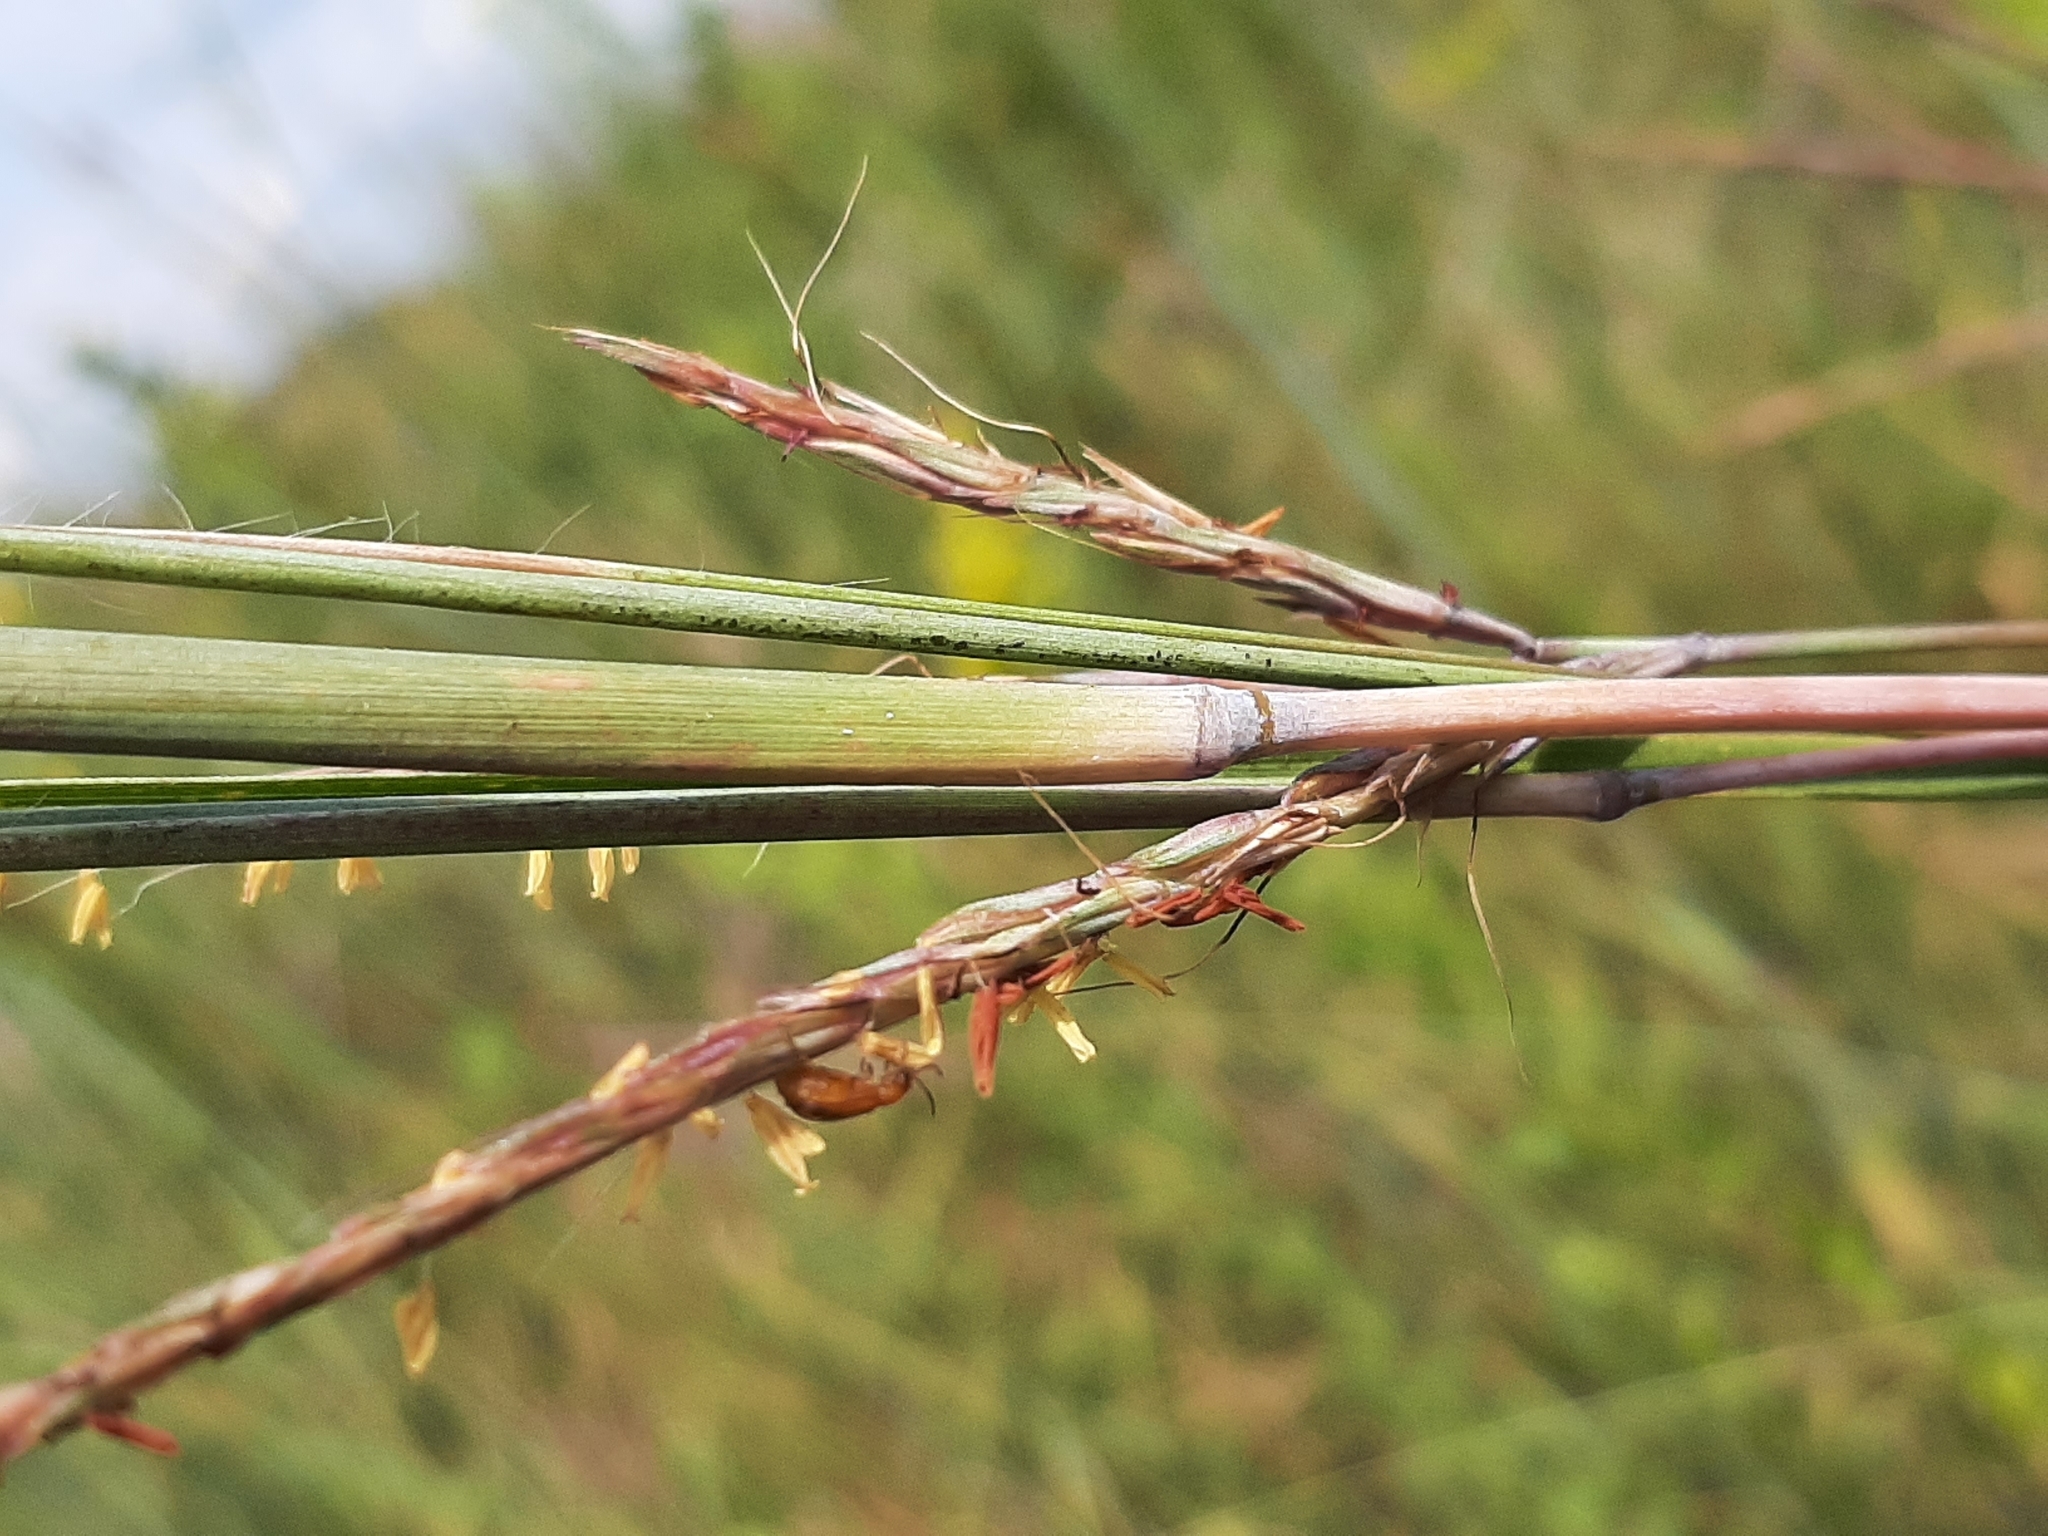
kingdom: Plantae
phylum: Tracheophyta
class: Liliopsida
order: Poales
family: Poaceae
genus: Andropogon
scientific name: Andropogon gerardi
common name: Big bluestem
